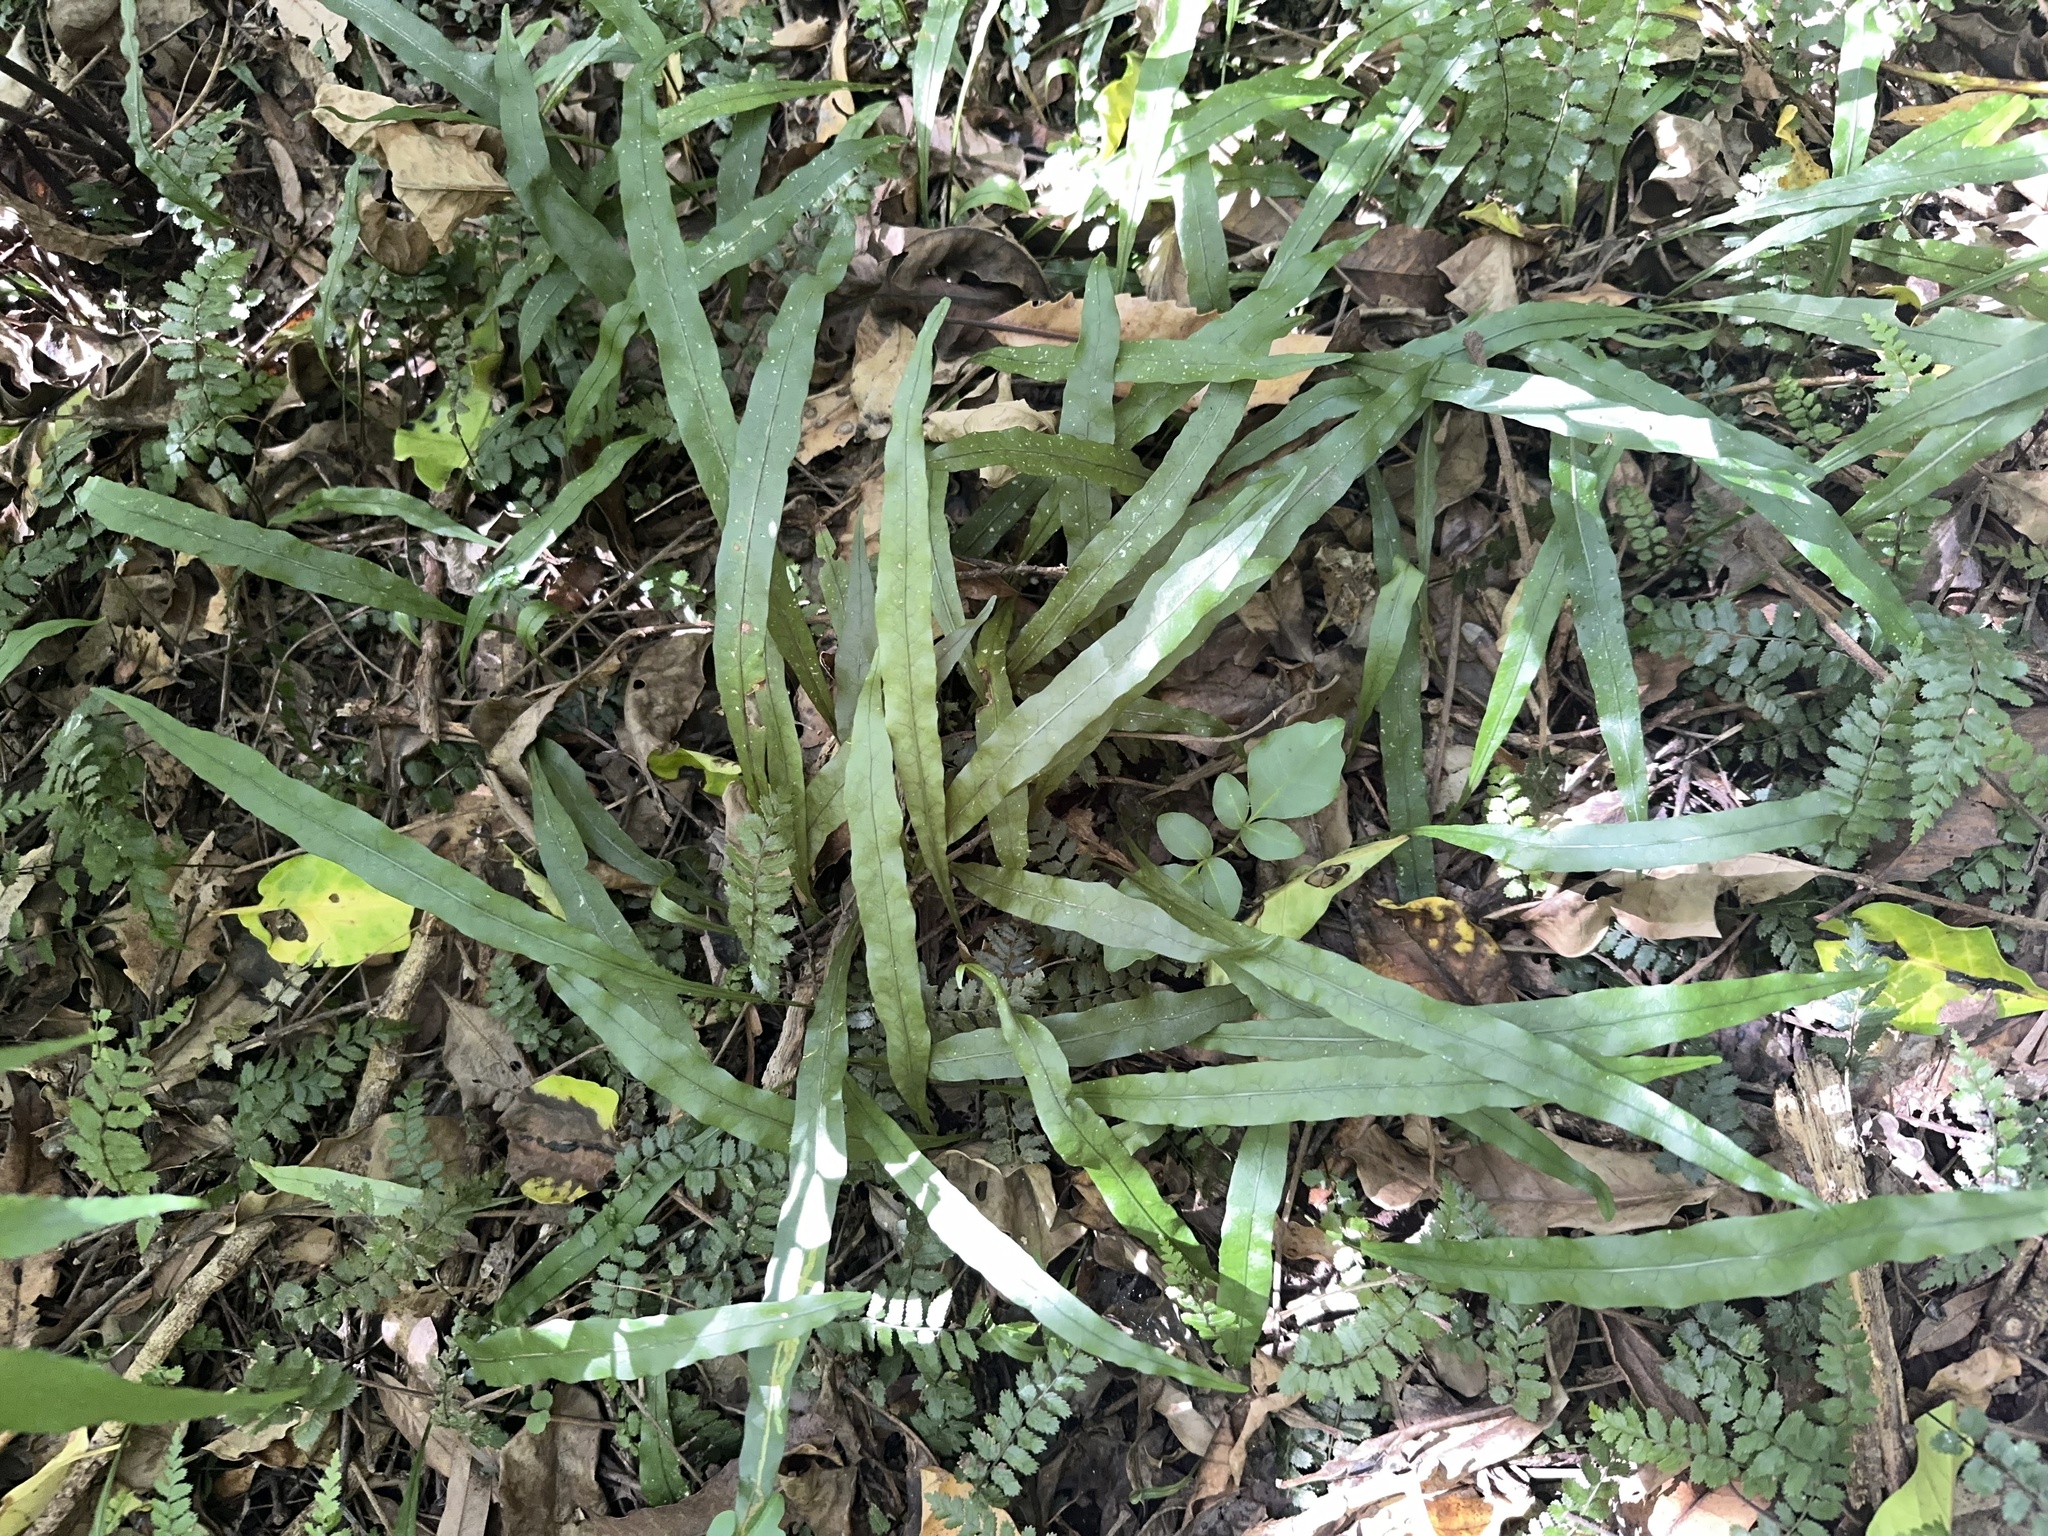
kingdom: Plantae
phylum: Tracheophyta
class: Polypodiopsida
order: Polypodiales
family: Polypodiaceae
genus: Lecanopteris
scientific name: Lecanopteris scandens
